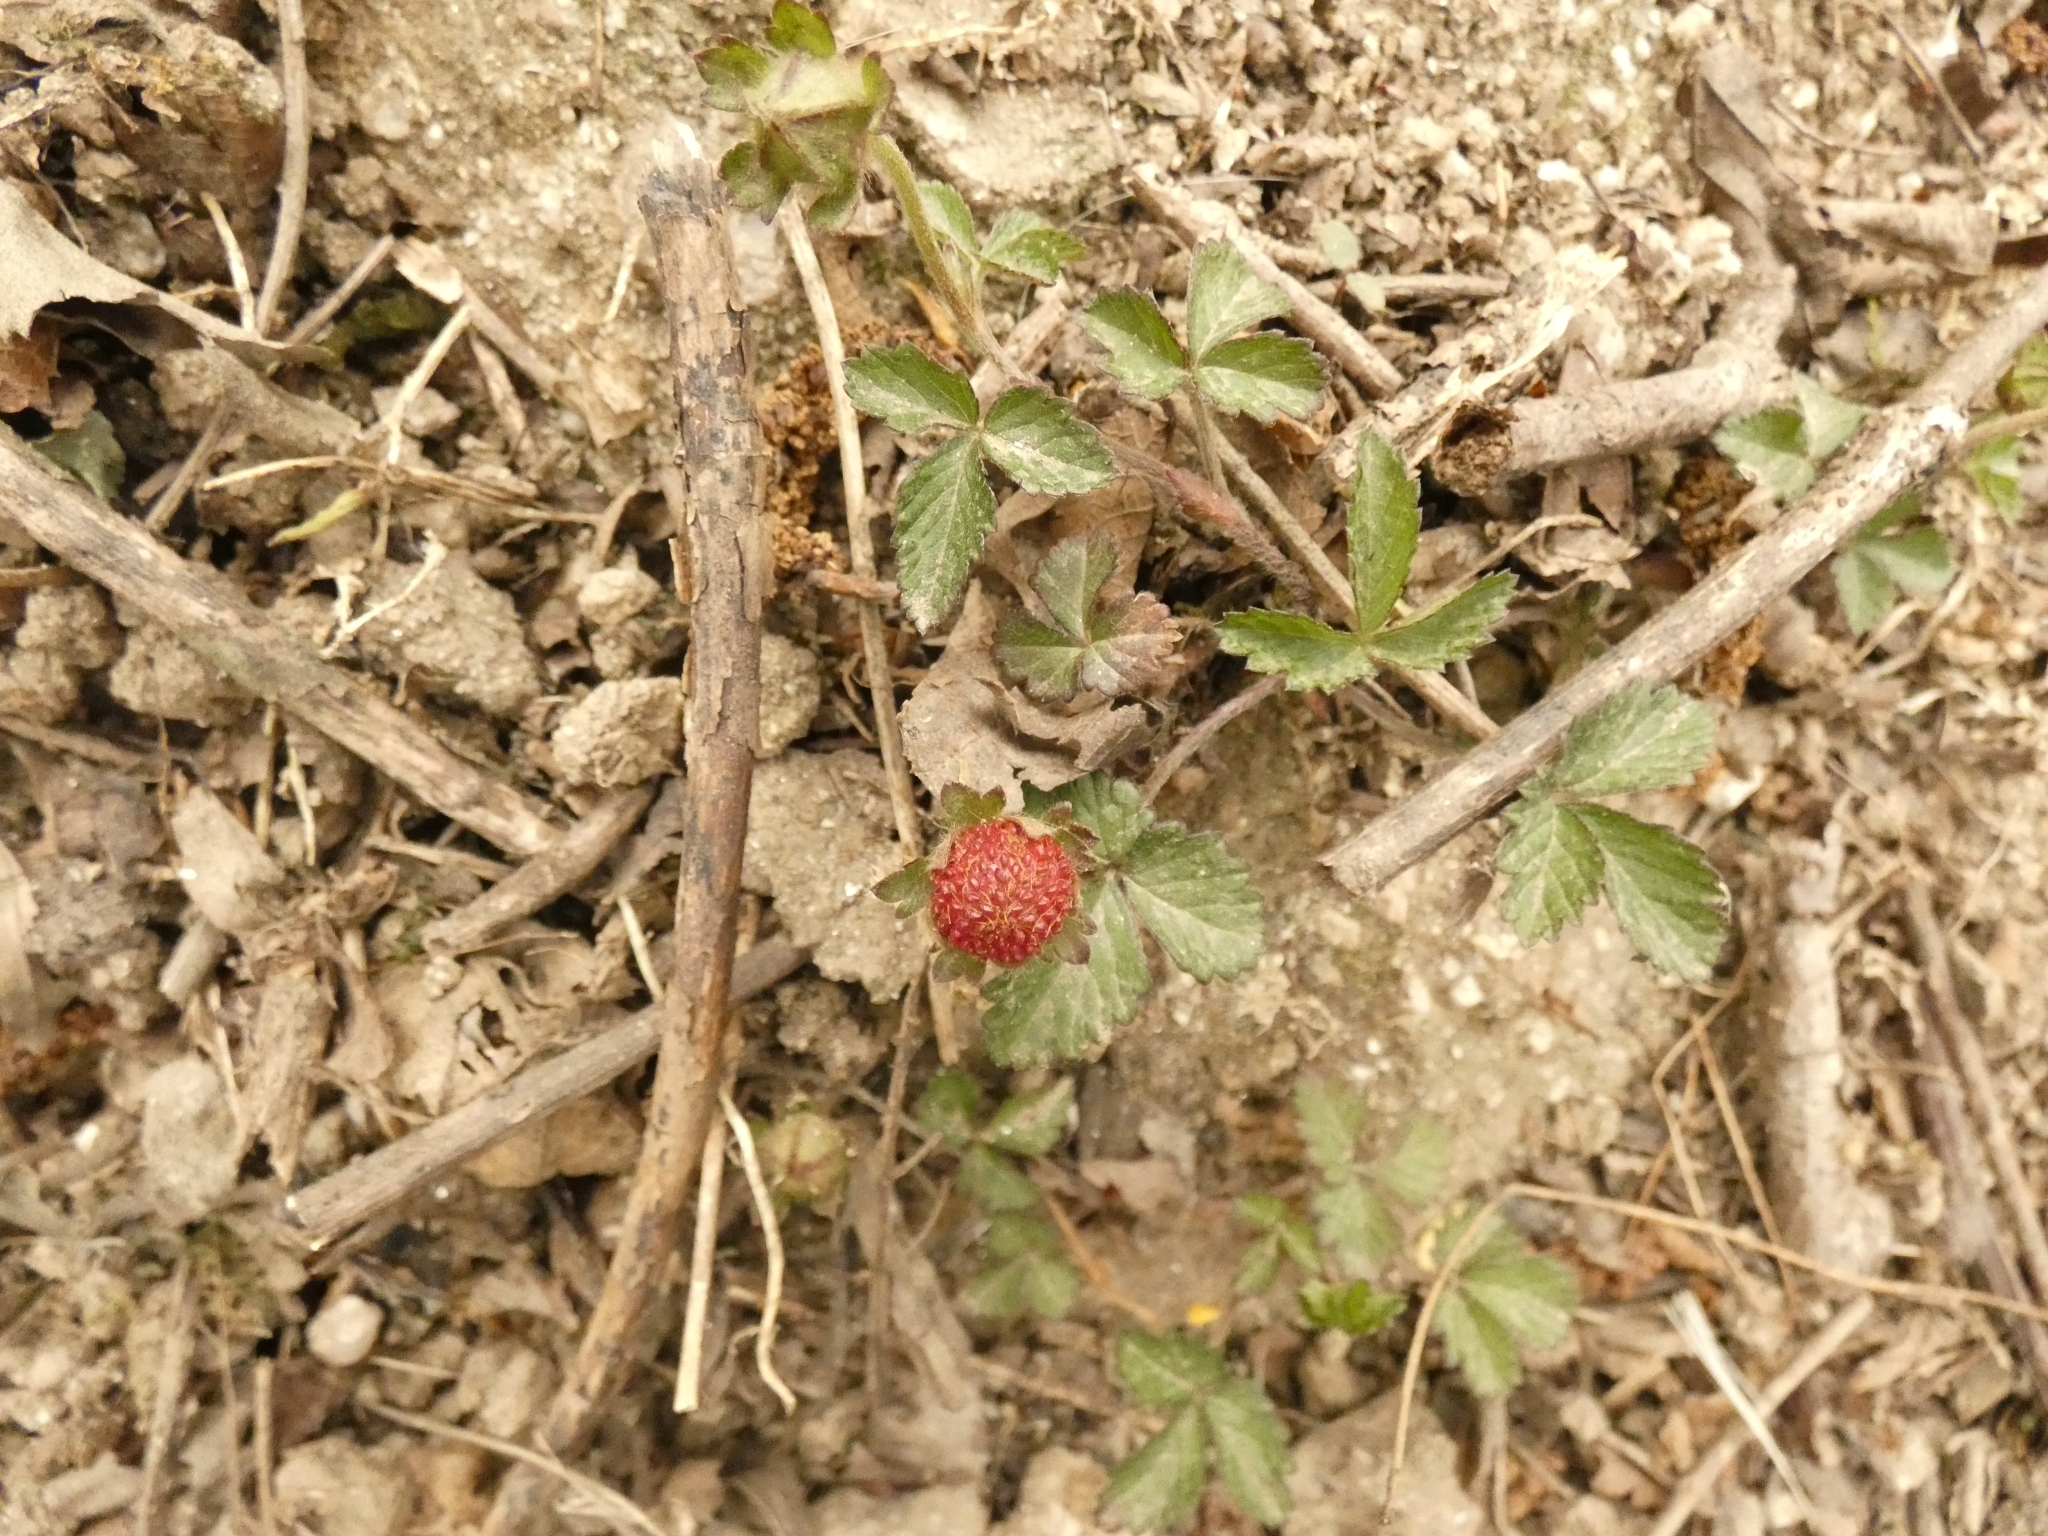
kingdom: Plantae
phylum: Tracheophyta
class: Magnoliopsida
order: Rosales
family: Rosaceae
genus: Potentilla
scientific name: Potentilla indica
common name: Yellow-flowered strawberry
